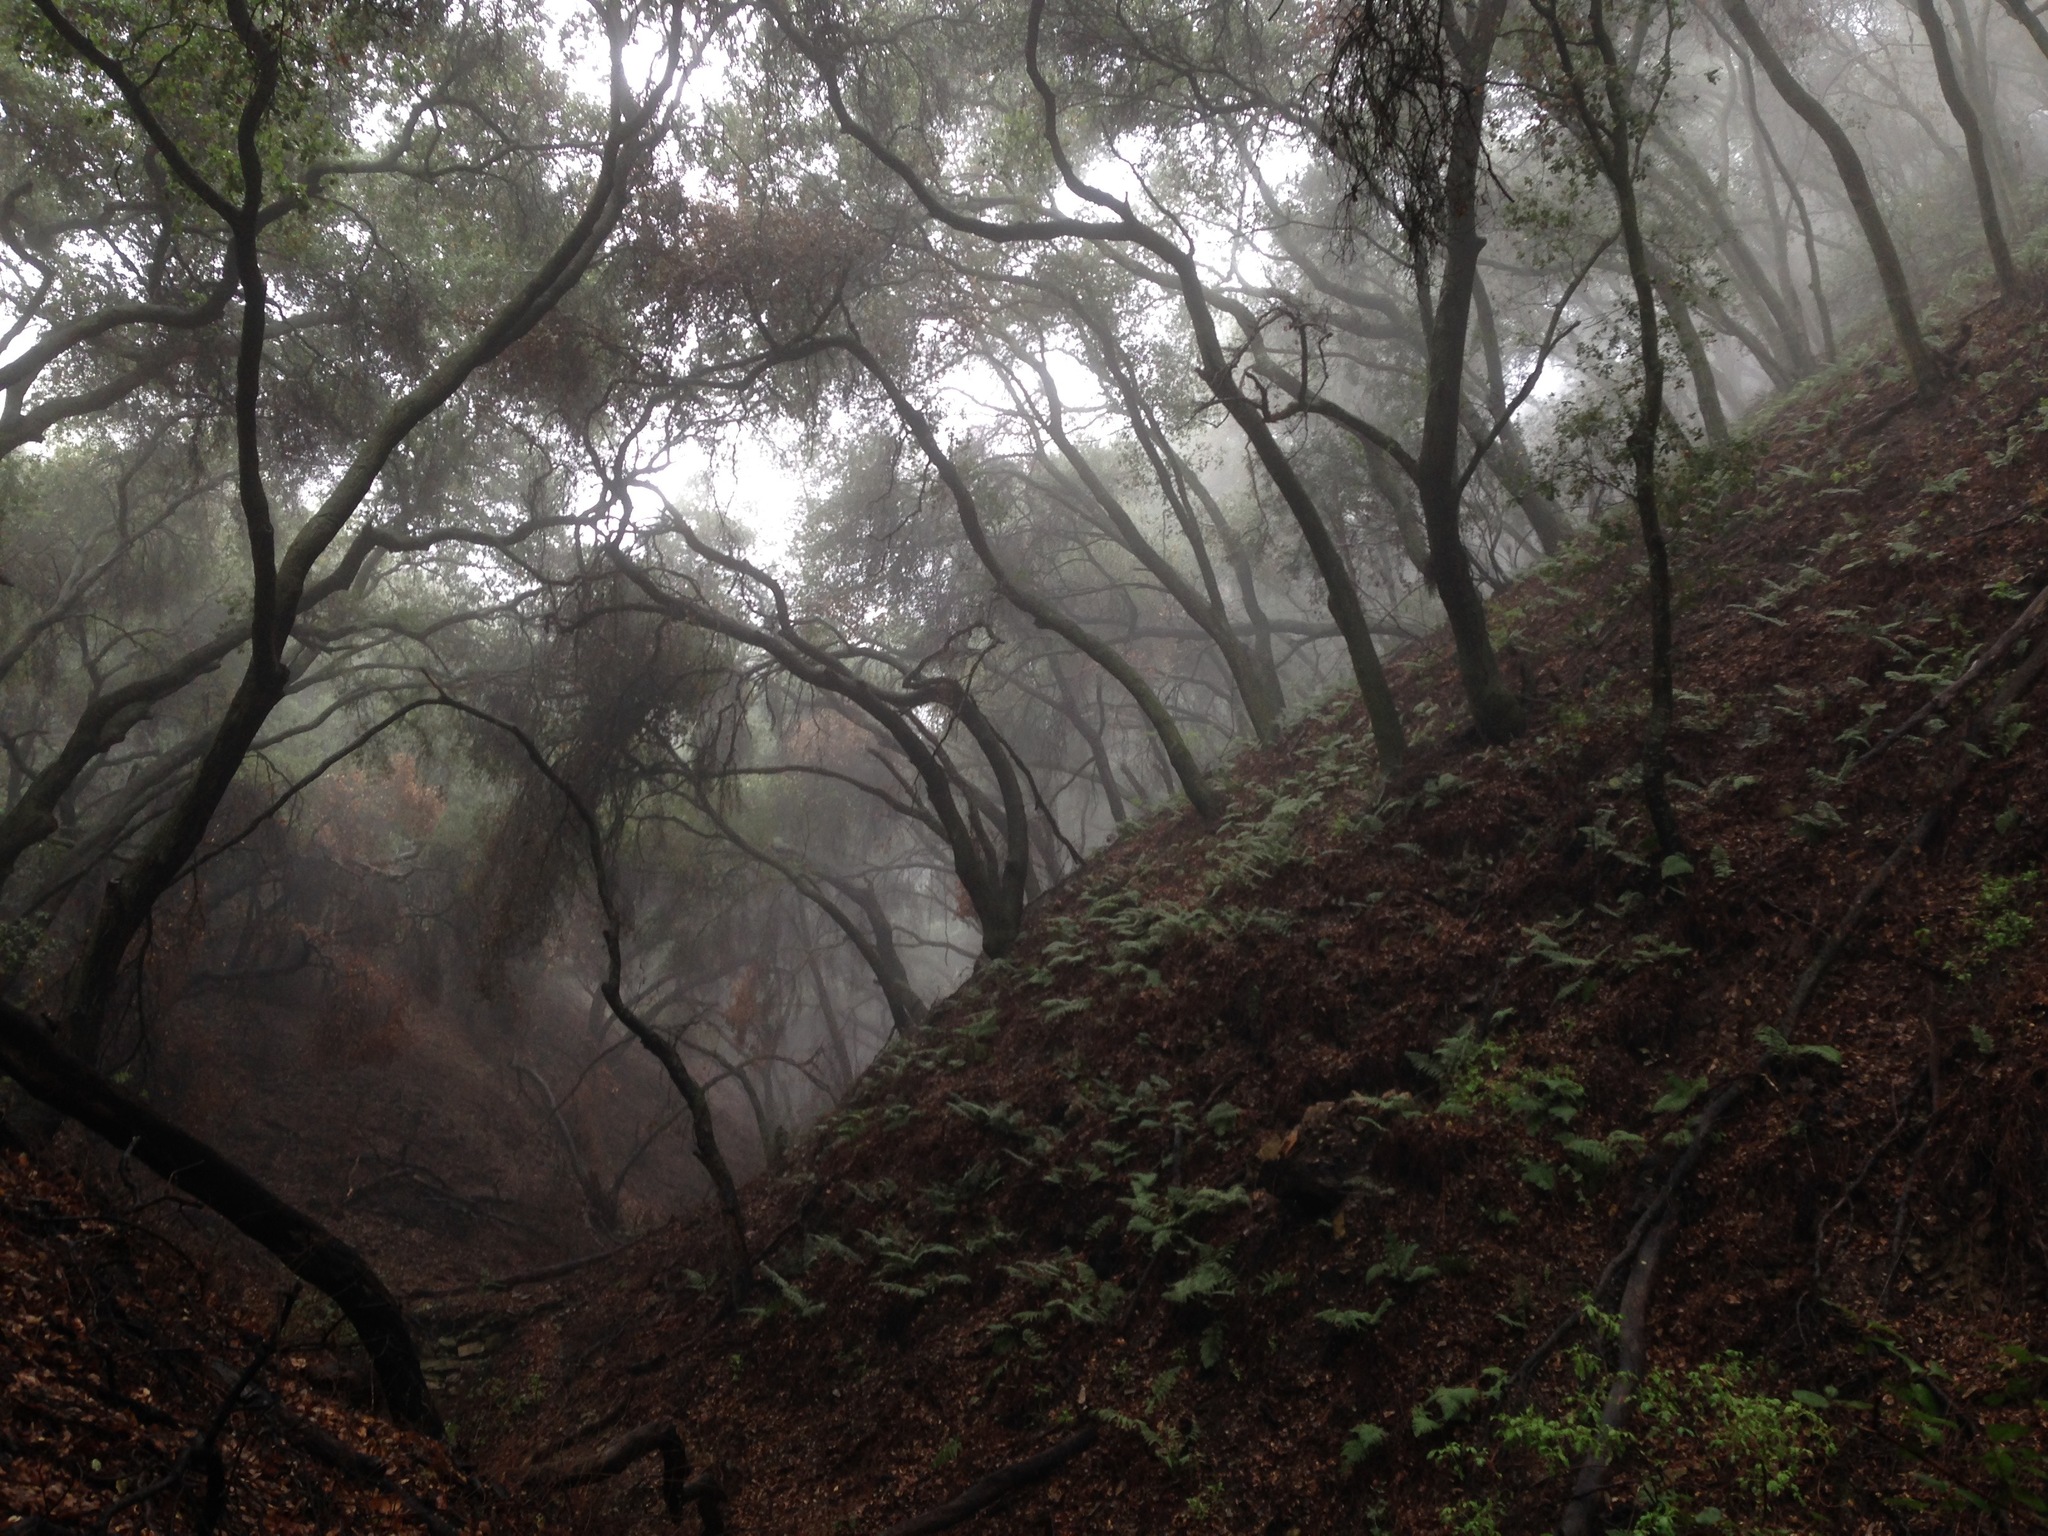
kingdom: Plantae
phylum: Tracheophyta
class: Magnoliopsida
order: Fagales
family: Fagaceae
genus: Quercus
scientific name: Quercus agrifolia
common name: California live oak
